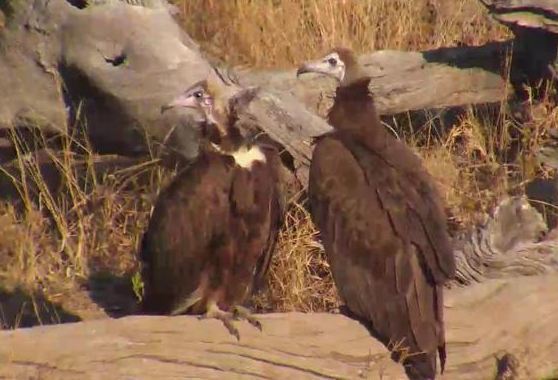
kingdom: Animalia
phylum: Chordata
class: Aves
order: Accipitriformes
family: Accipitridae
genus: Necrosyrtes
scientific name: Necrosyrtes monachus
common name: Hooded vulture
